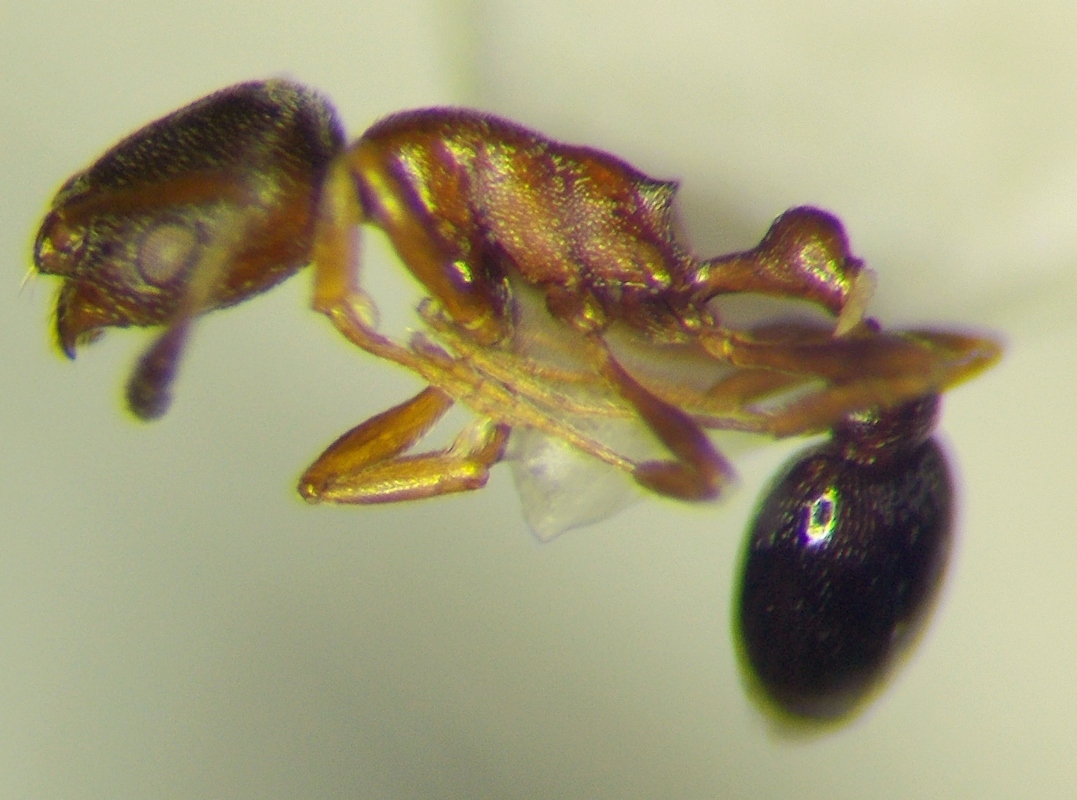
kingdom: Animalia
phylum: Arthropoda
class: Insecta
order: Hymenoptera
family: Formicidae
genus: Cardiocondyla
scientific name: Cardiocondyla venustula
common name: Ant
